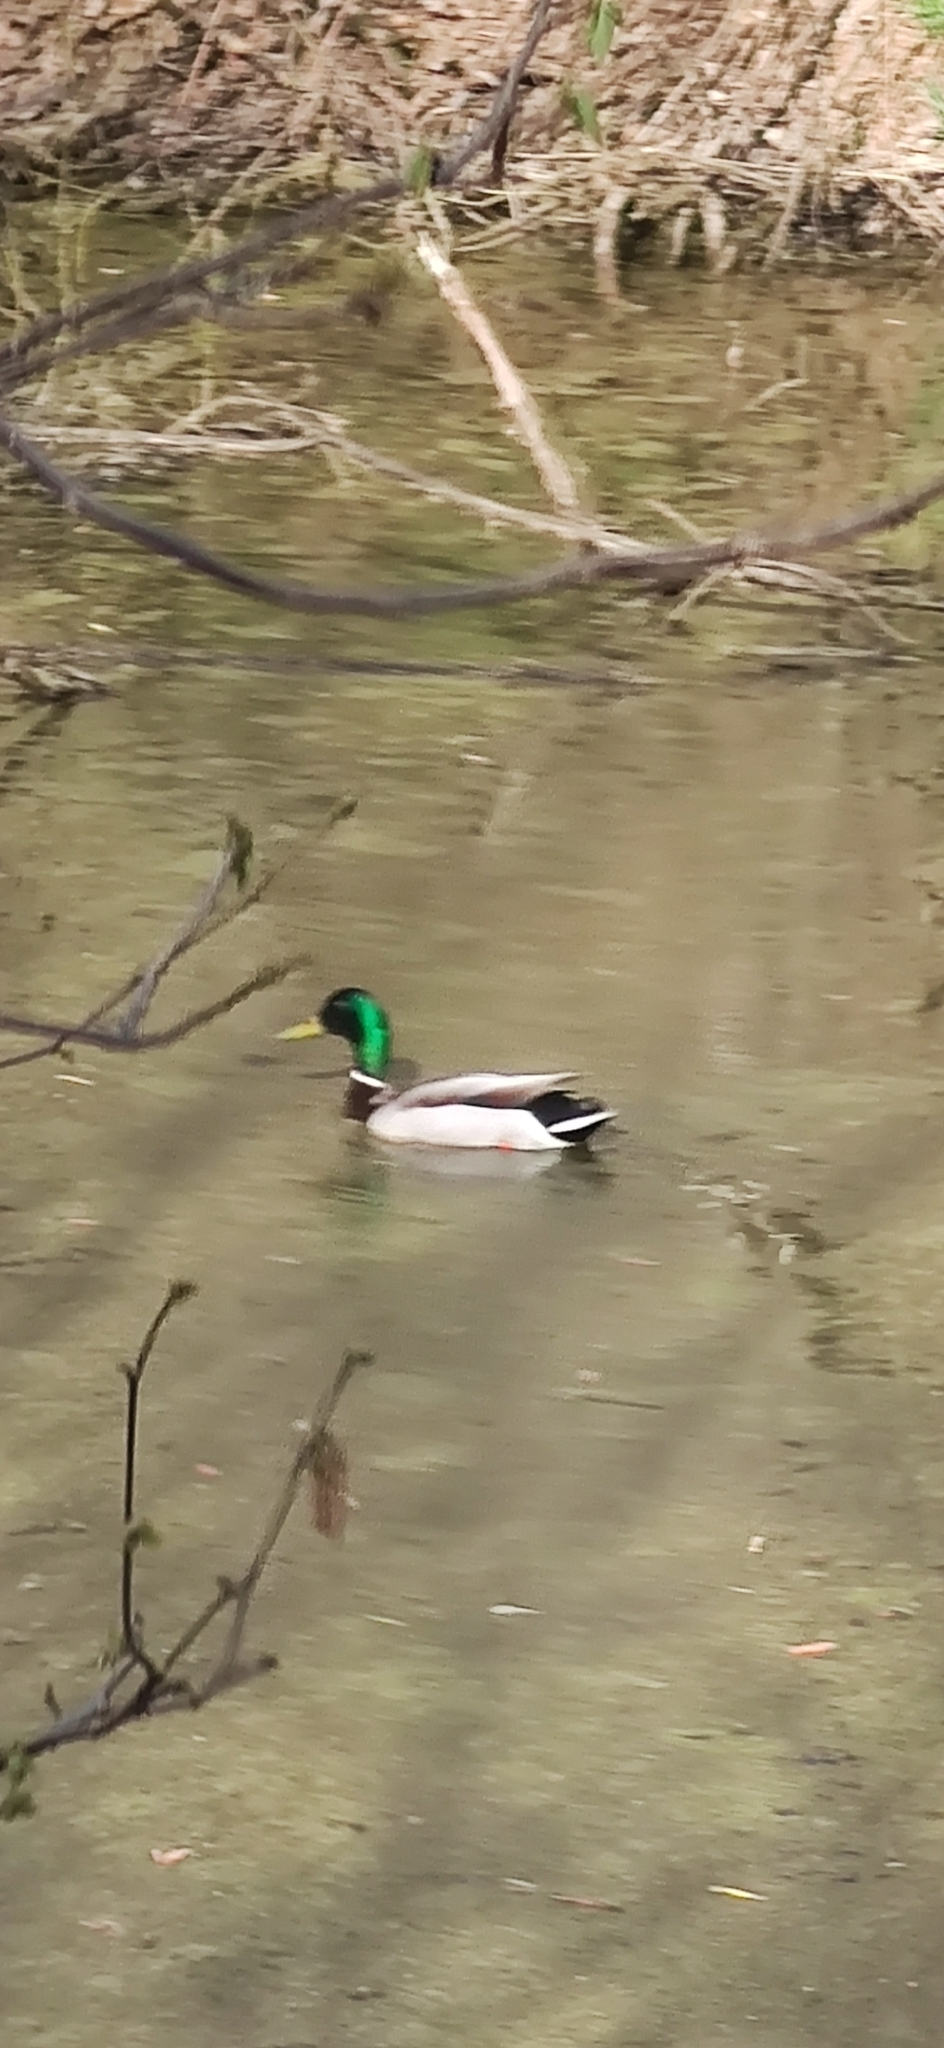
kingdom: Animalia
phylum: Chordata
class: Aves
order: Anseriformes
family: Anatidae
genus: Anas
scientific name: Anas platyrhynchos
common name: Mallard
